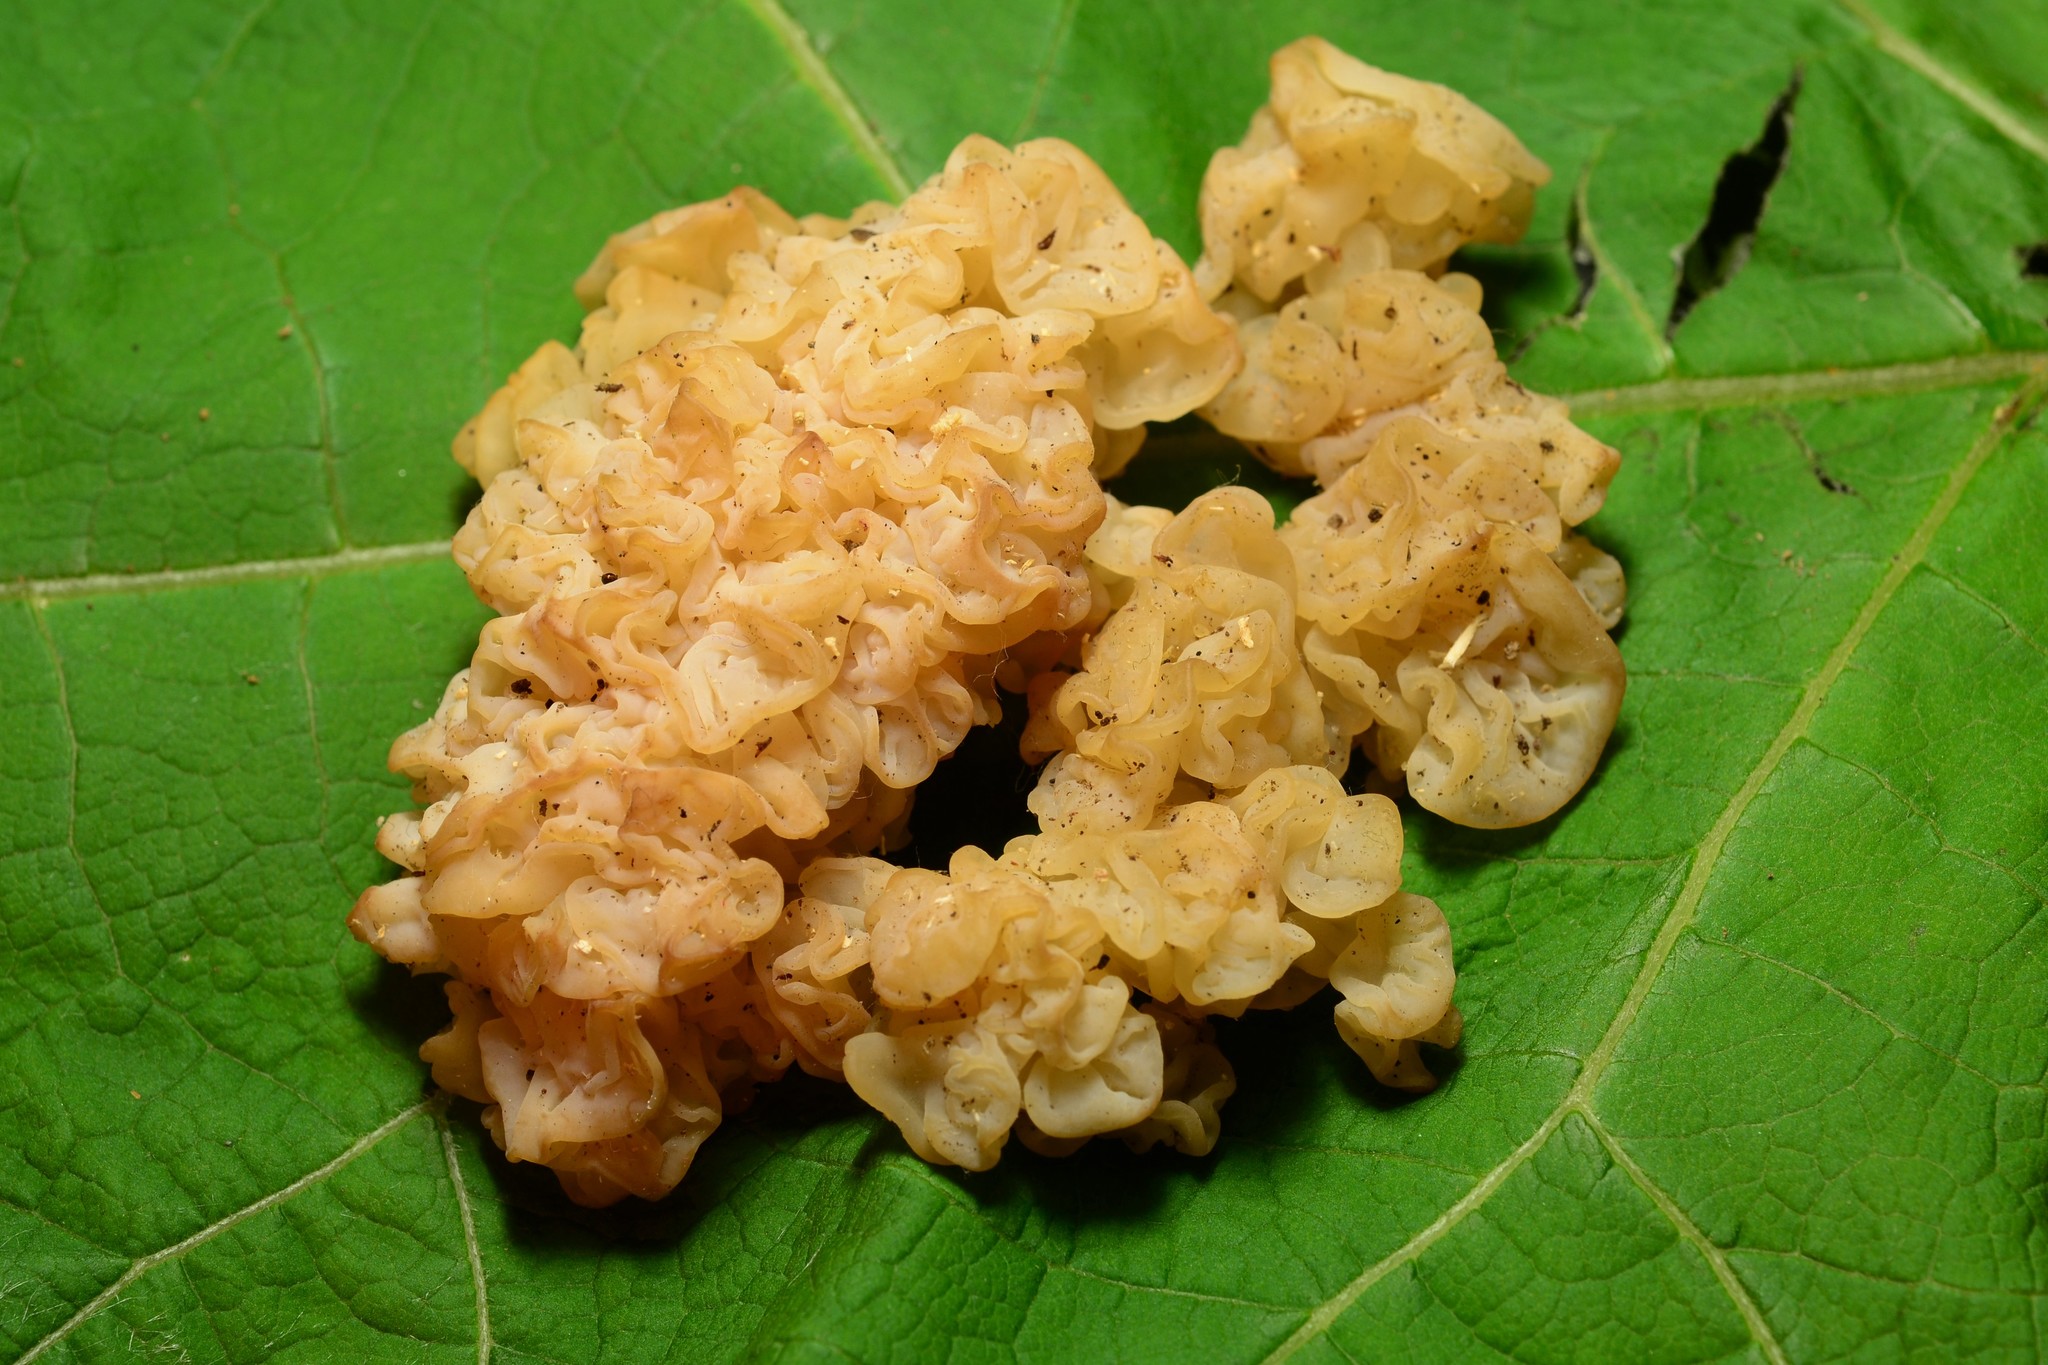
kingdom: Fungi
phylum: Basidiomycota
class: Agaricomycetes
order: Auriculariales
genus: Ductifera
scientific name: Ductifera pululahuana
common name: White jelly fungus
